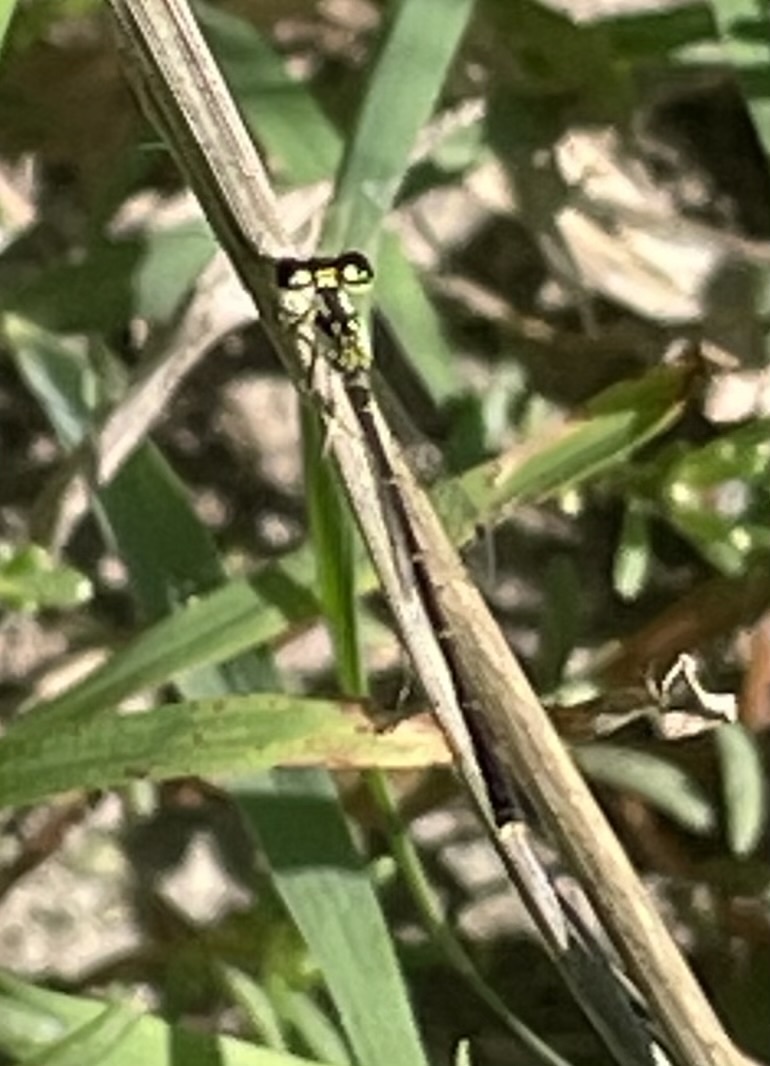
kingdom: Animalia
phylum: Arthropoda
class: Insecta
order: Odonata
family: Coenagrionidae
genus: Ischnura
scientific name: Ischnura posita
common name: Fragile forktail
